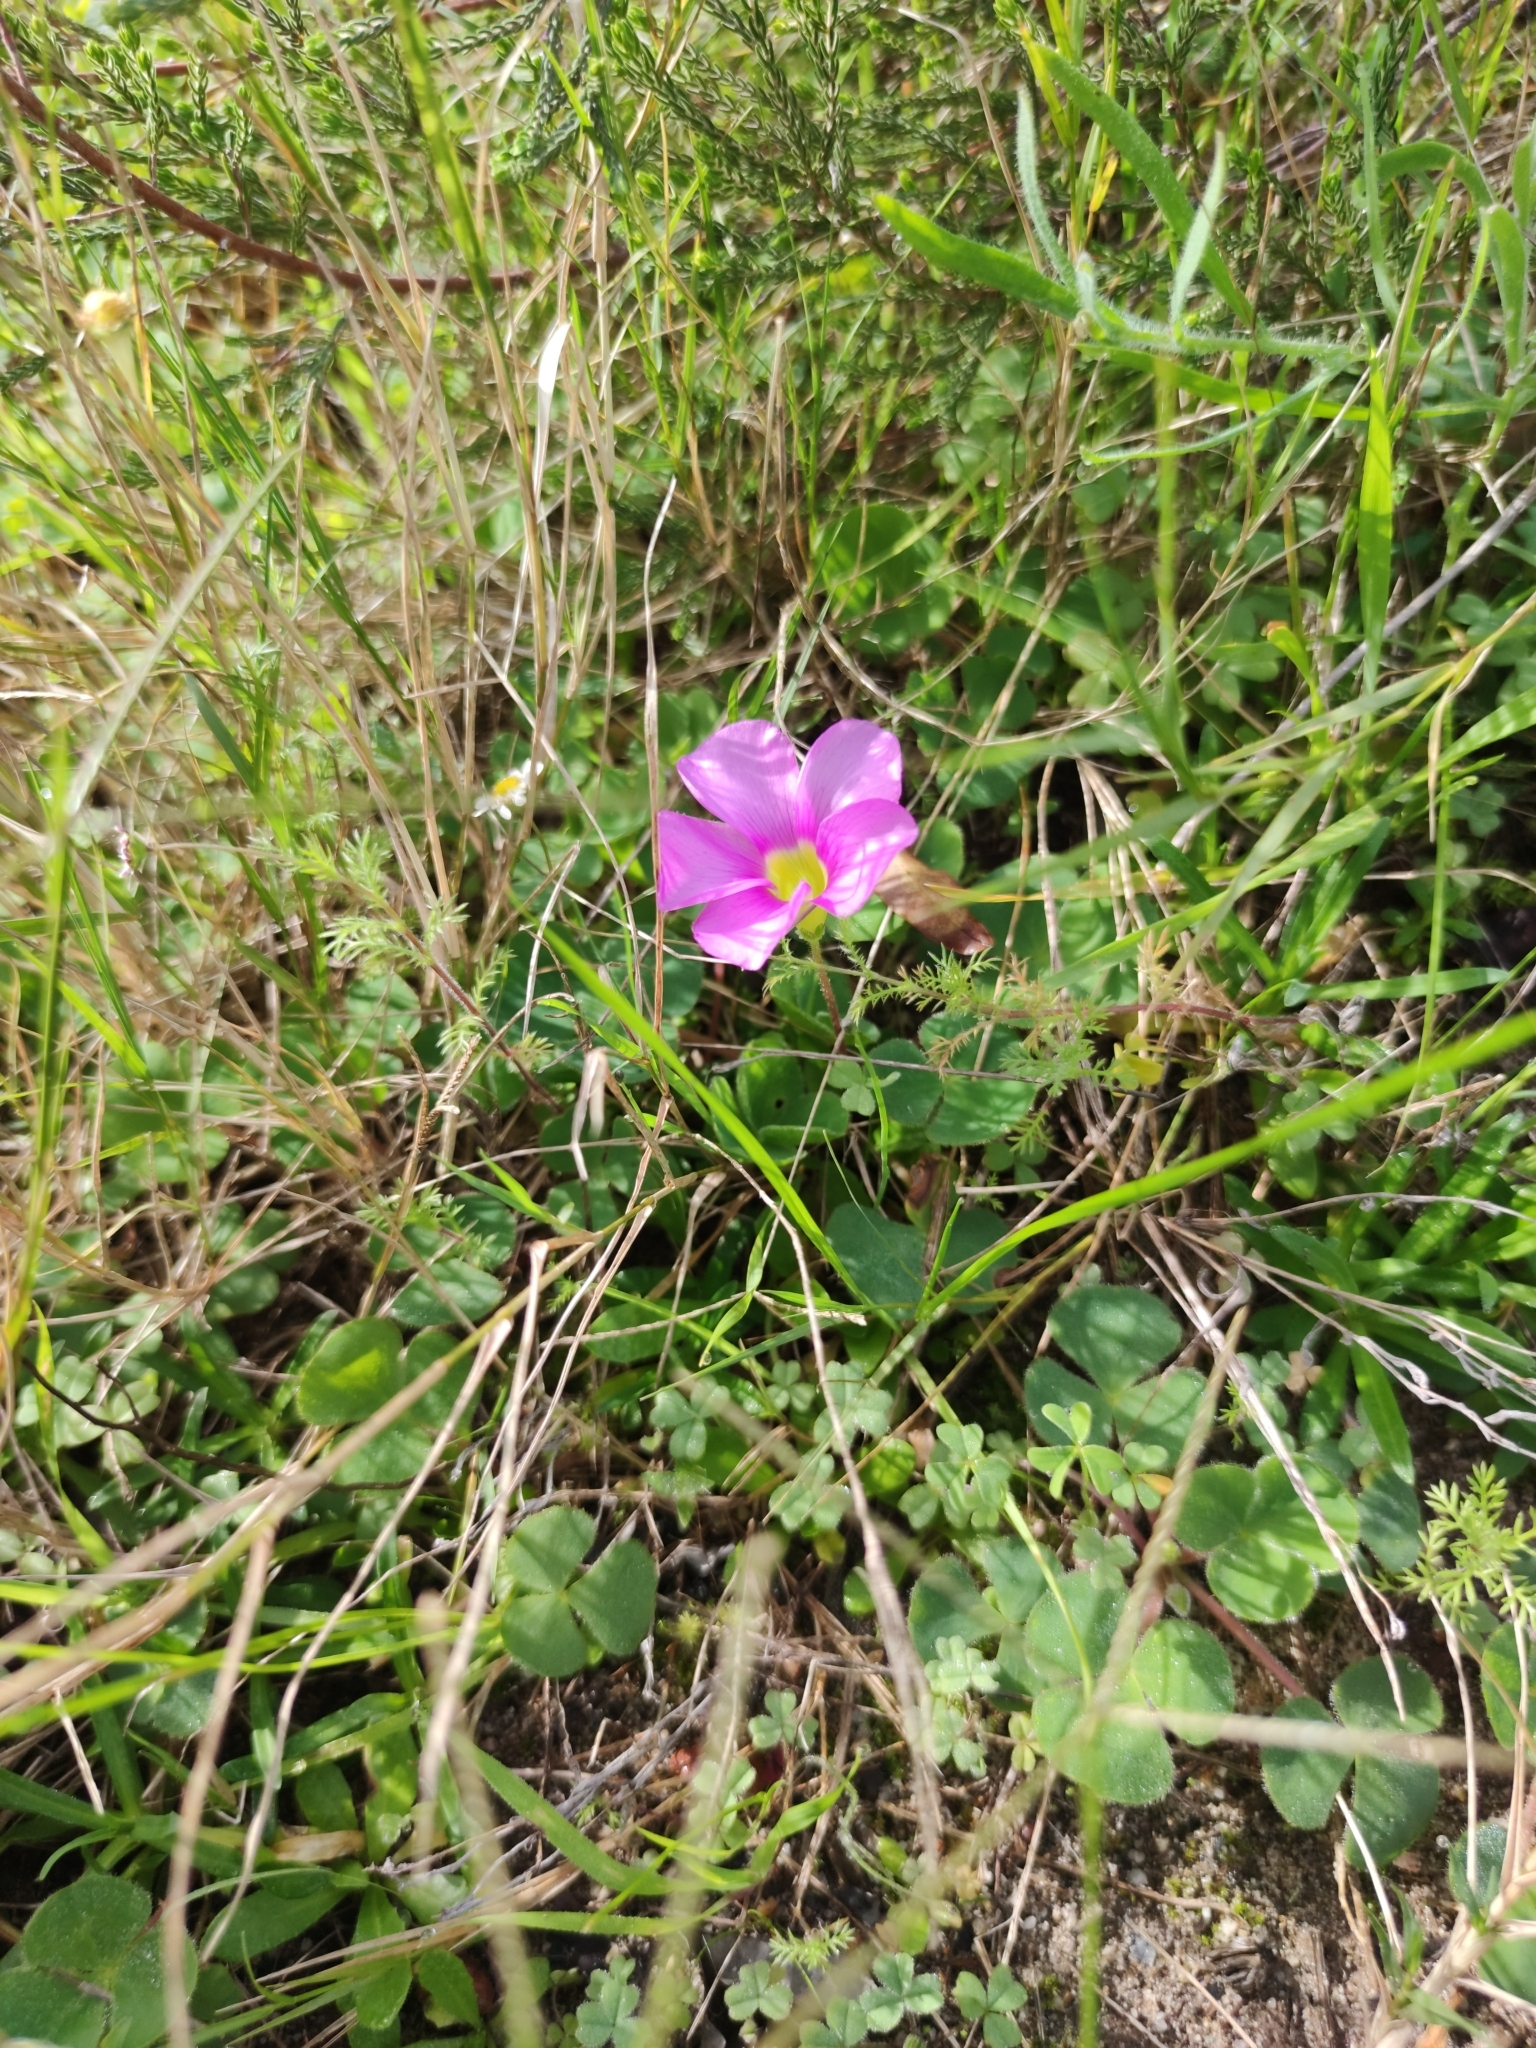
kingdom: Plantae
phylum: Tracheophyta
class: Magnoliopsida
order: Oxalidales
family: Oxalidaceae
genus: Oxalis
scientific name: Oxalis purpurea
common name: Purple woodsorrel
